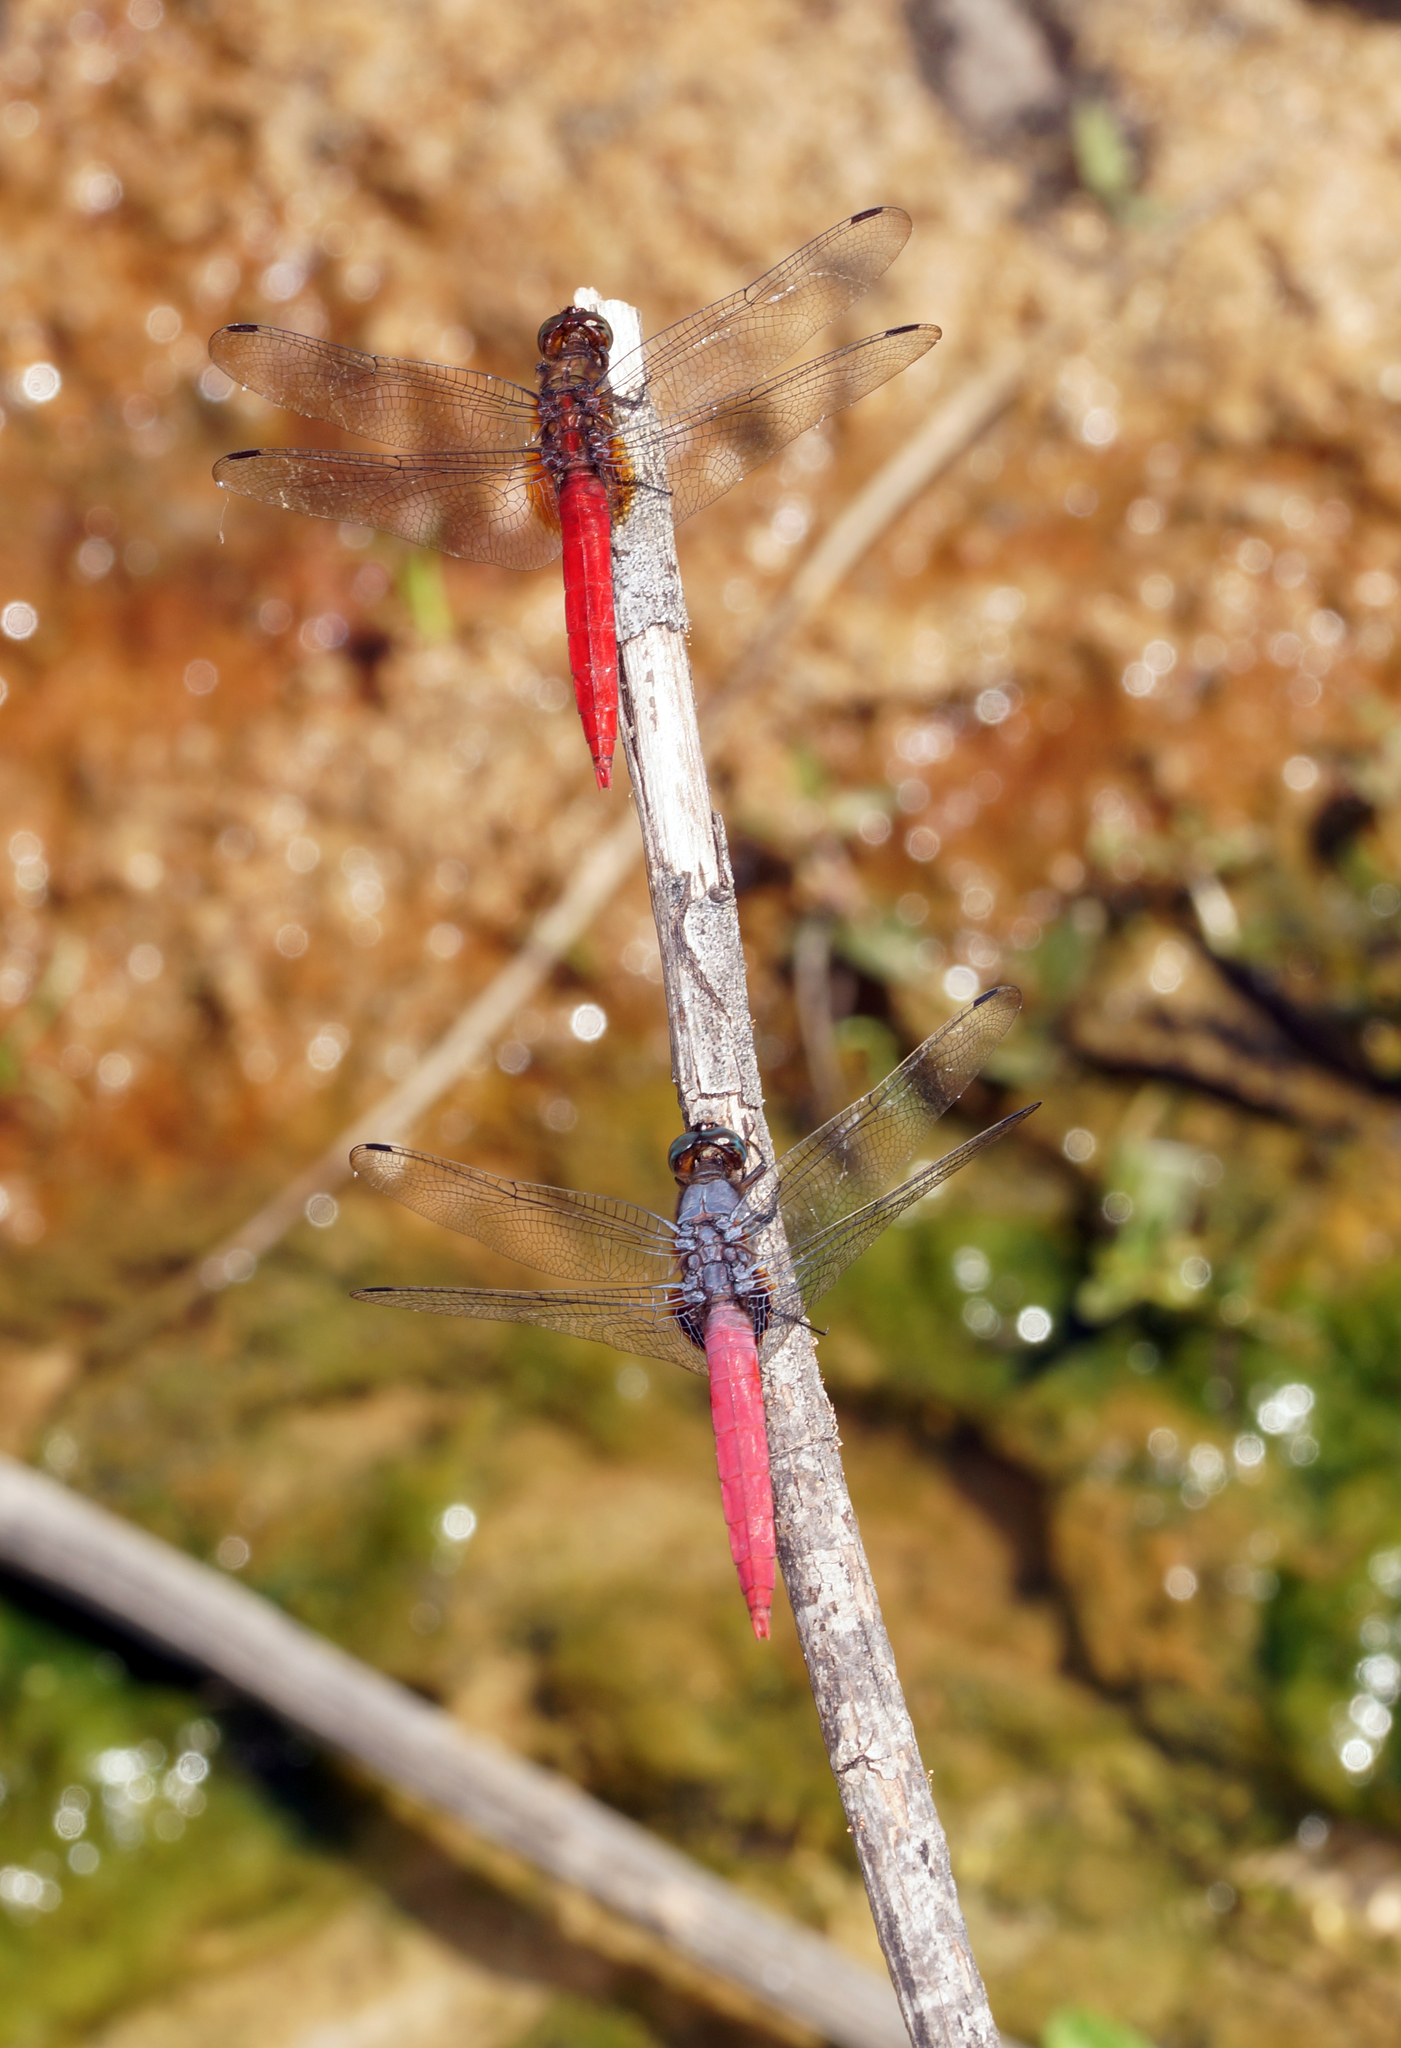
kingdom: Animalia
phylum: Arthropoda
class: Insecta
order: Odonata
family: Libellulidae
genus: Orthetrum
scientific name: Orthetrum pruinosum
